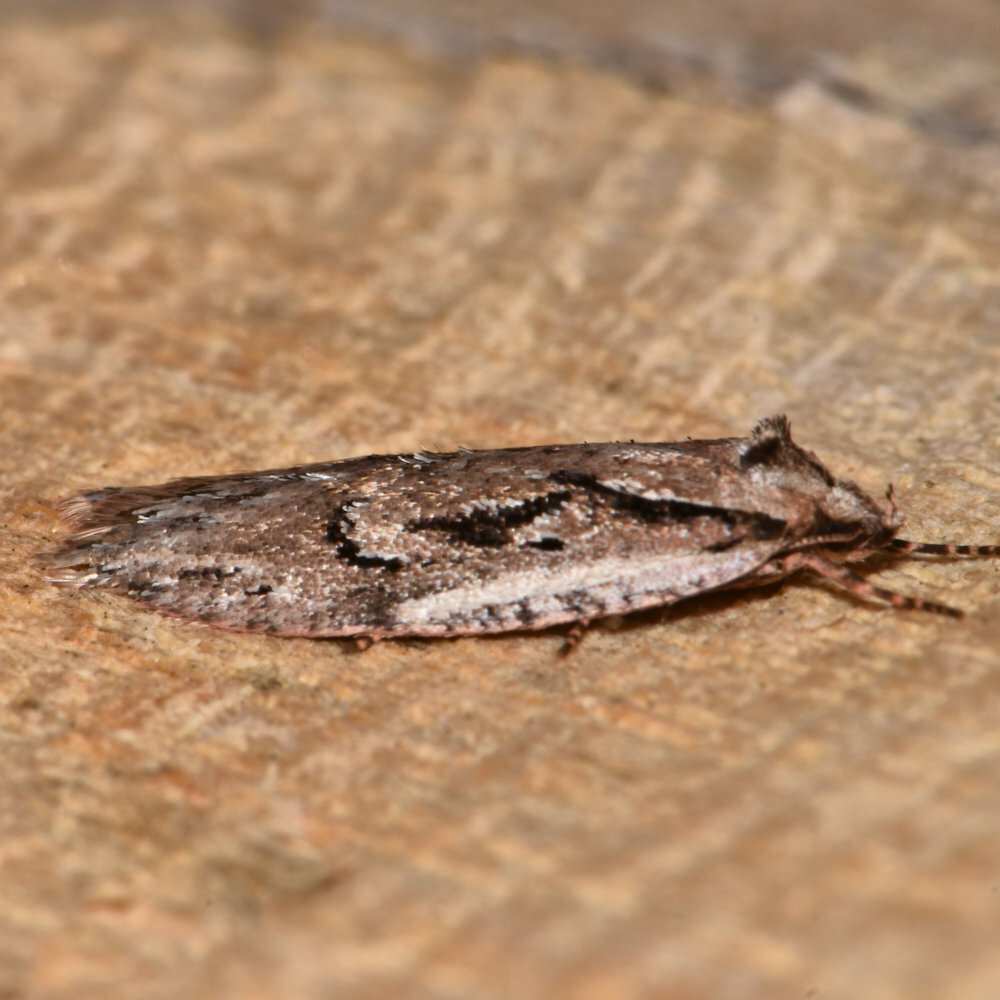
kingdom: Animalia
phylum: Arthropoda
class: Insecta
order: Lepidoptera
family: Depressariidae
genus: Semioscopis
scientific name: Semioscopis aurorella
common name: Aurora flatbody moth
